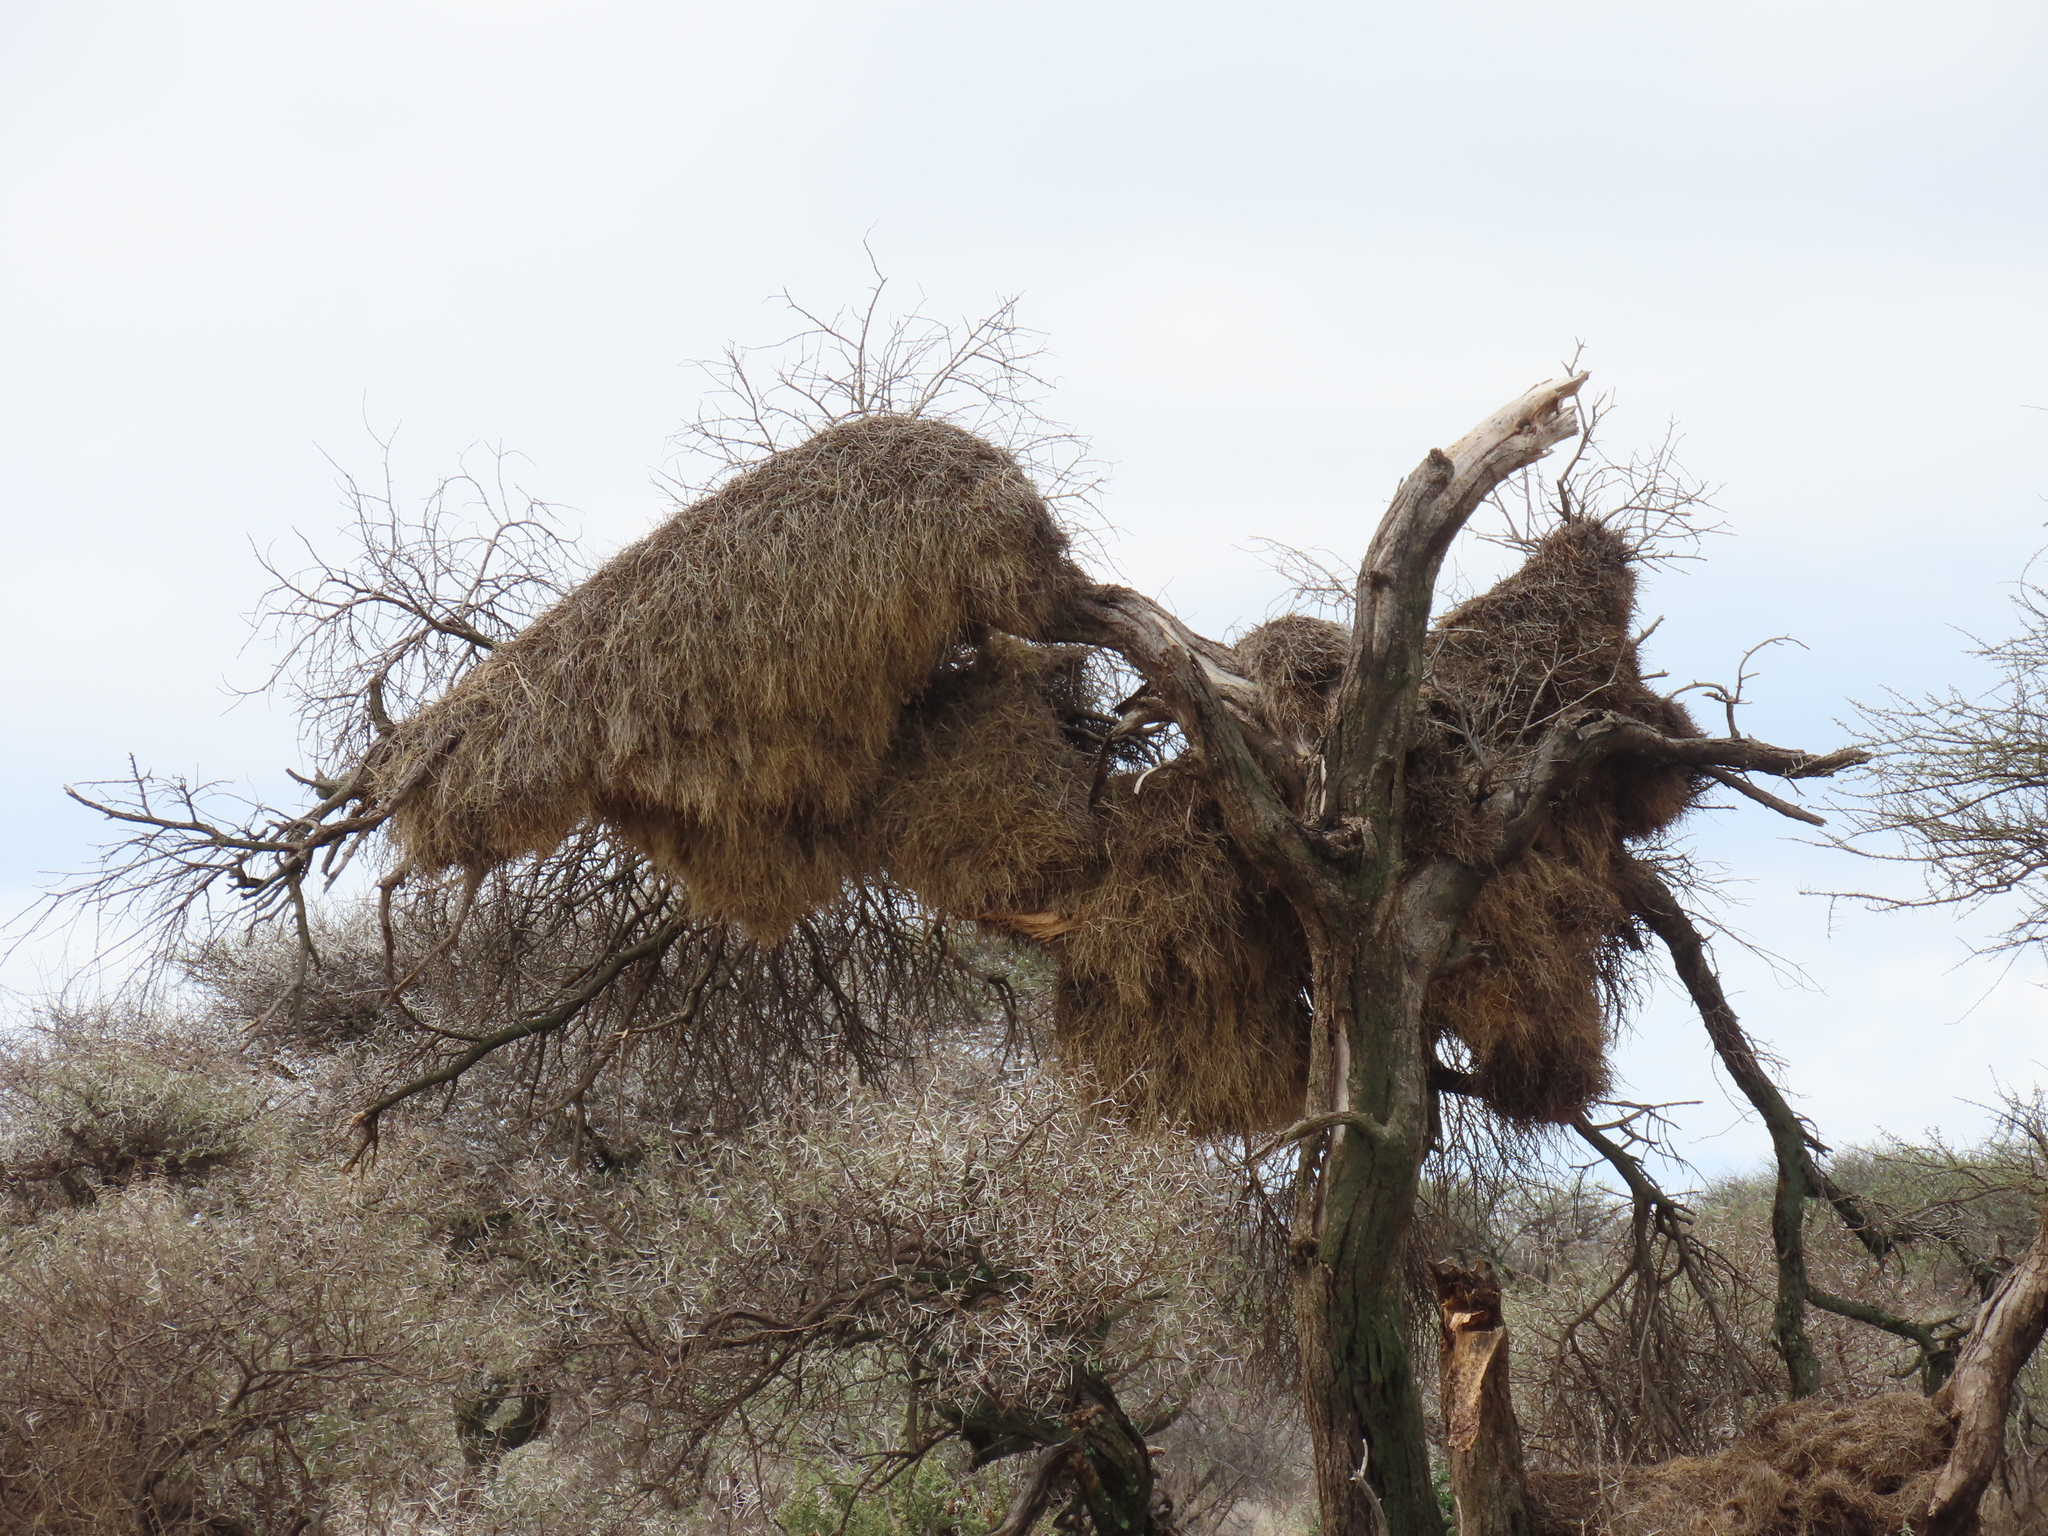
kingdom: Animalia
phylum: Chordata
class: Aves
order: Passeriformes
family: Passeridae
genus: Philetairus
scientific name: Philetairus socius
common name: Sociable weaver
